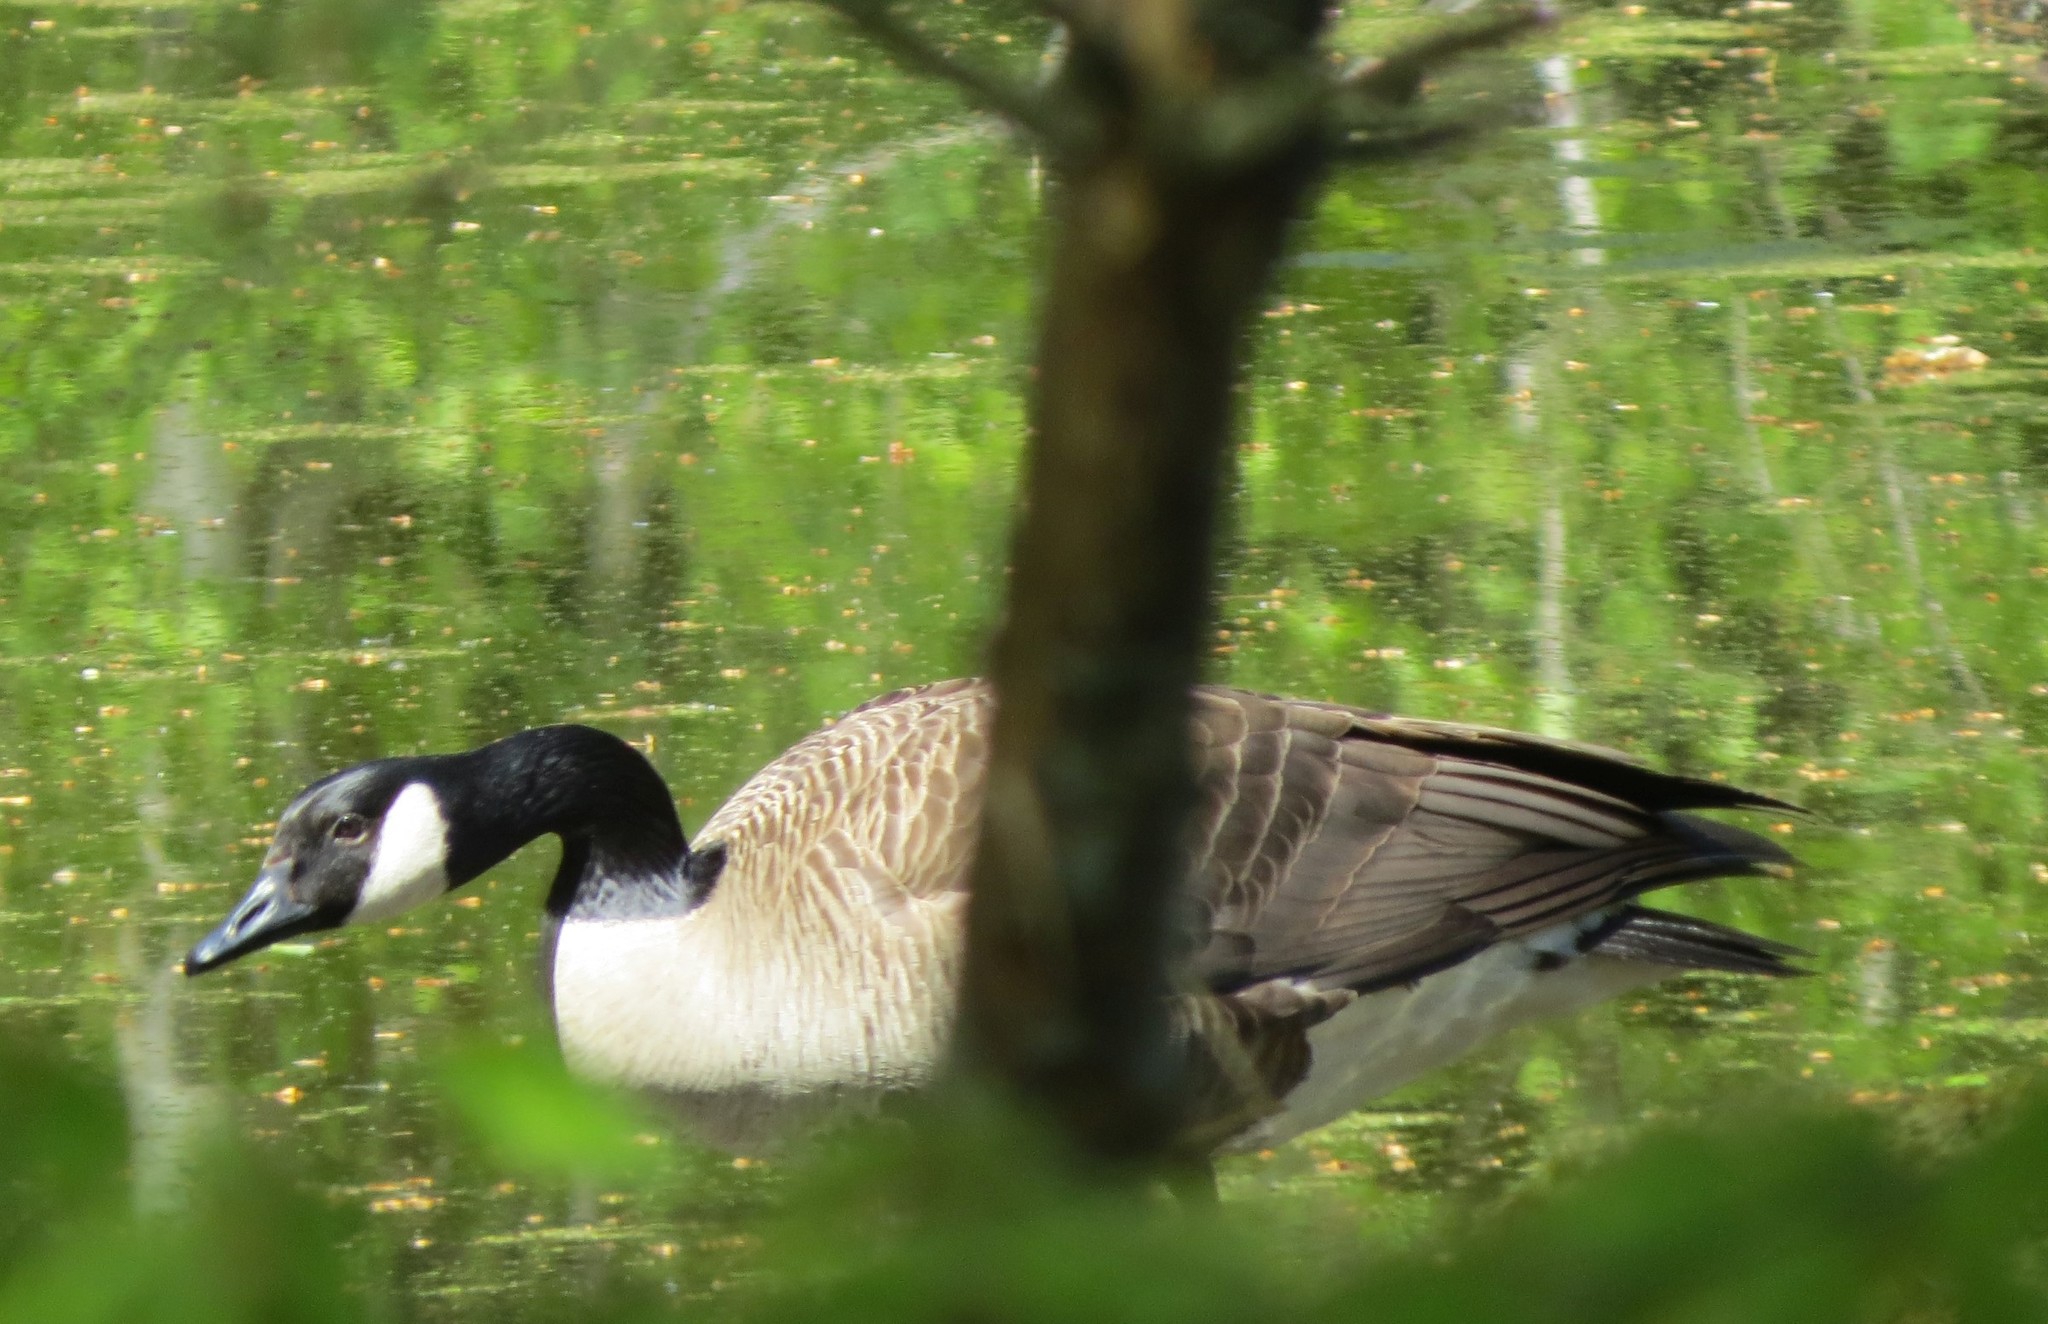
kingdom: Animalia
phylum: Chordata
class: Aves
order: Anseriformes
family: Anatidae
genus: Branta
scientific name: Branta canadensis
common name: Canada goose
